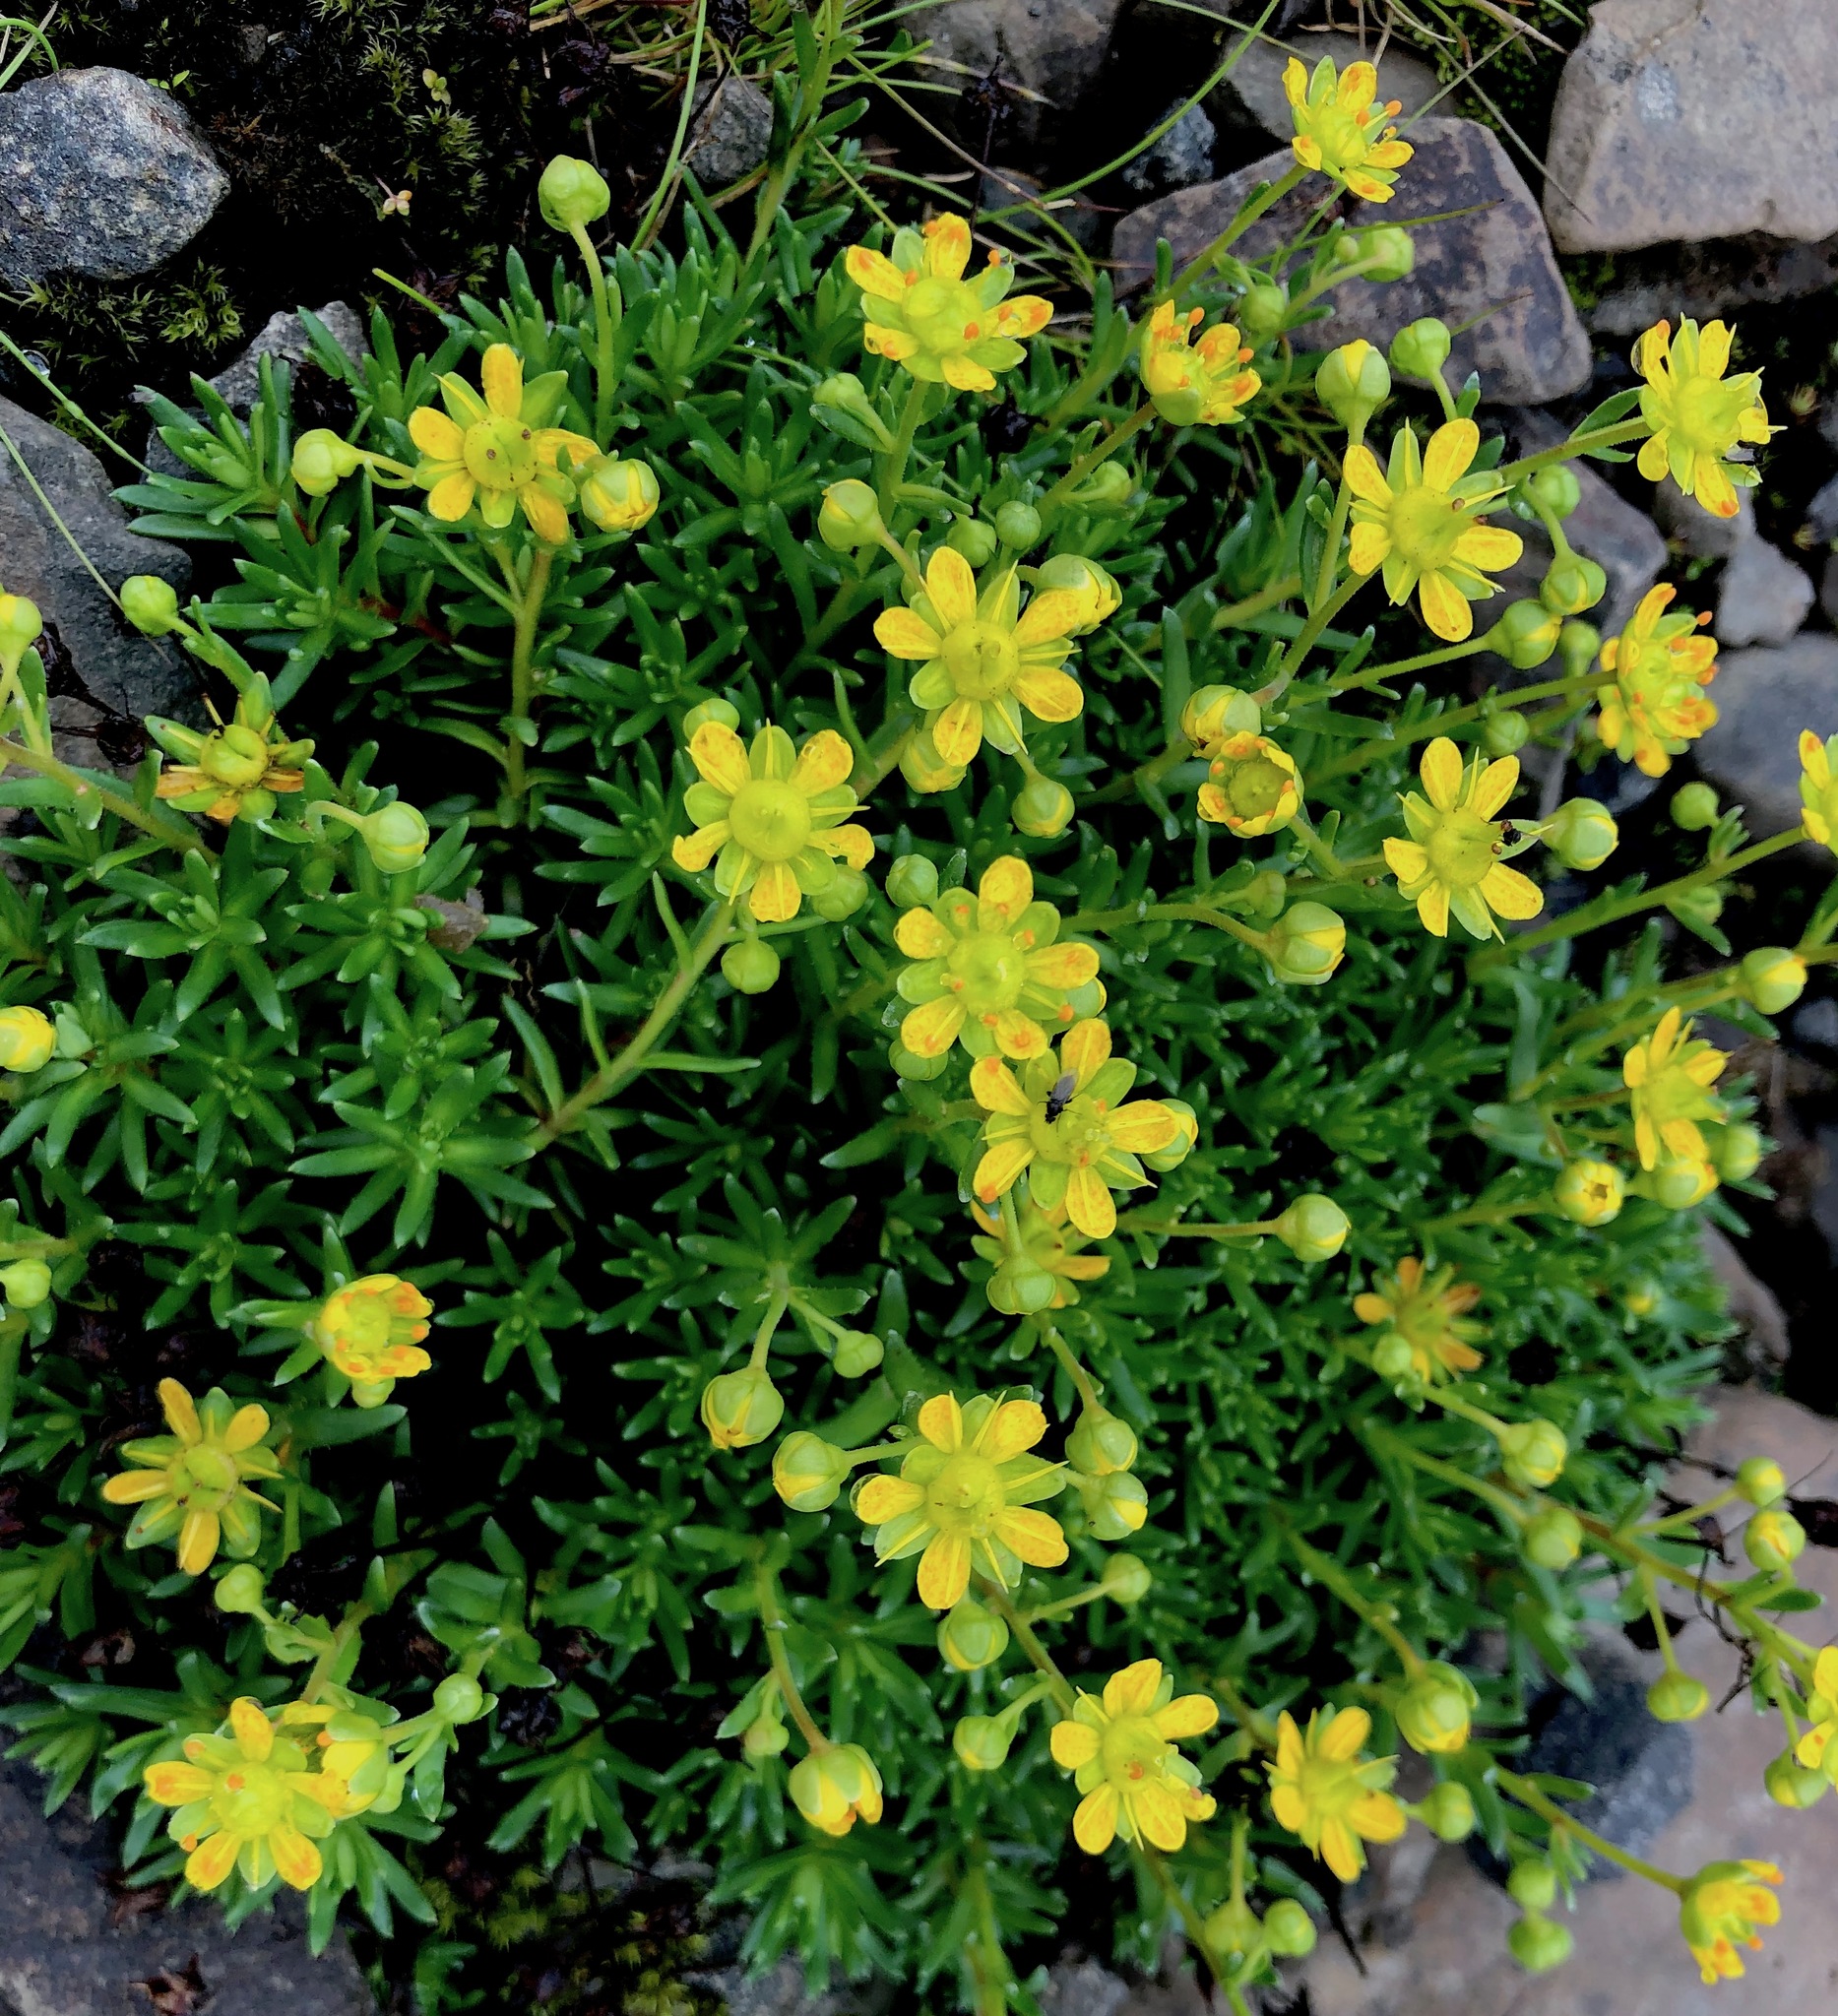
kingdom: Plantae
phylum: Tracheophyta
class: Magnoliopsida
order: Saxifragales
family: Saxifragaceae
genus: Saxifraga
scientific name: Saxifraga aizoides
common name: Yellow mountain saxifrage
